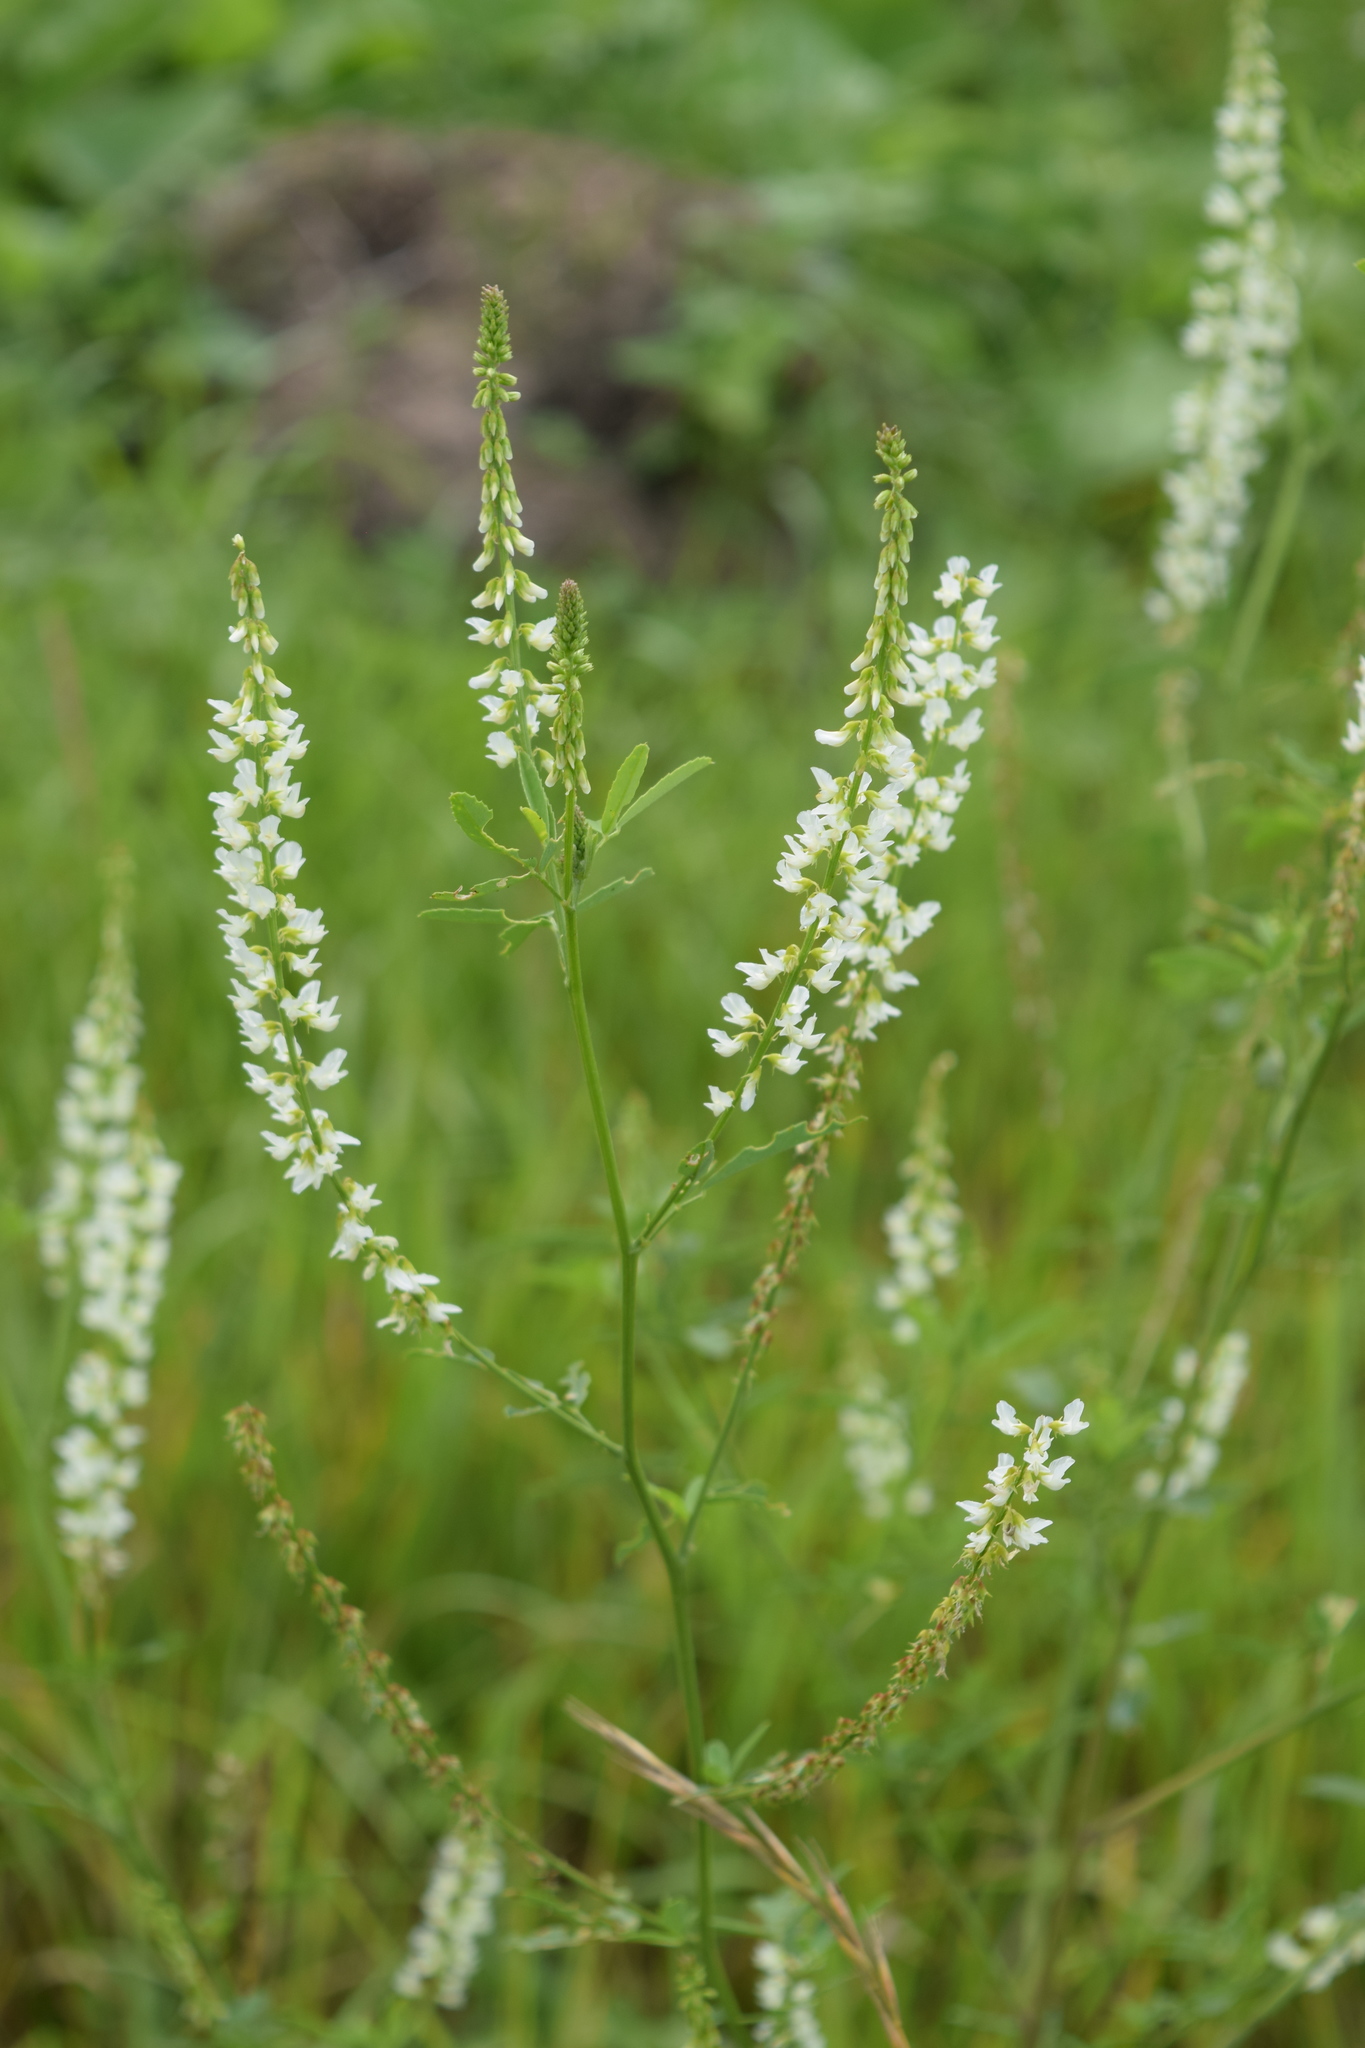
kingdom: Plantae
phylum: Tracheophyta
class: Magnoliopsida
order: Fabales
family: Fabaceae
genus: Melilotus
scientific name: Melilotus albus
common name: White melilot
